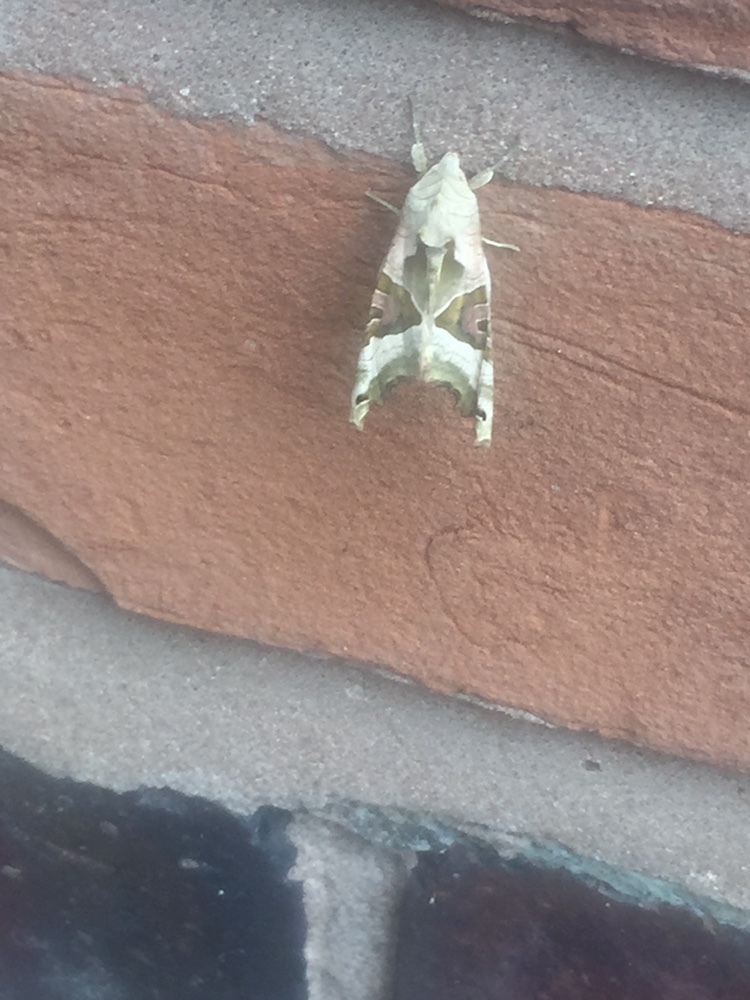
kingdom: Animalia
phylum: Arthropoda
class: Insecta
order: Lepidoptera
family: Noctuidae
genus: Phlogophora
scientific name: Phlogophora meticulosa
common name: Angle shades
